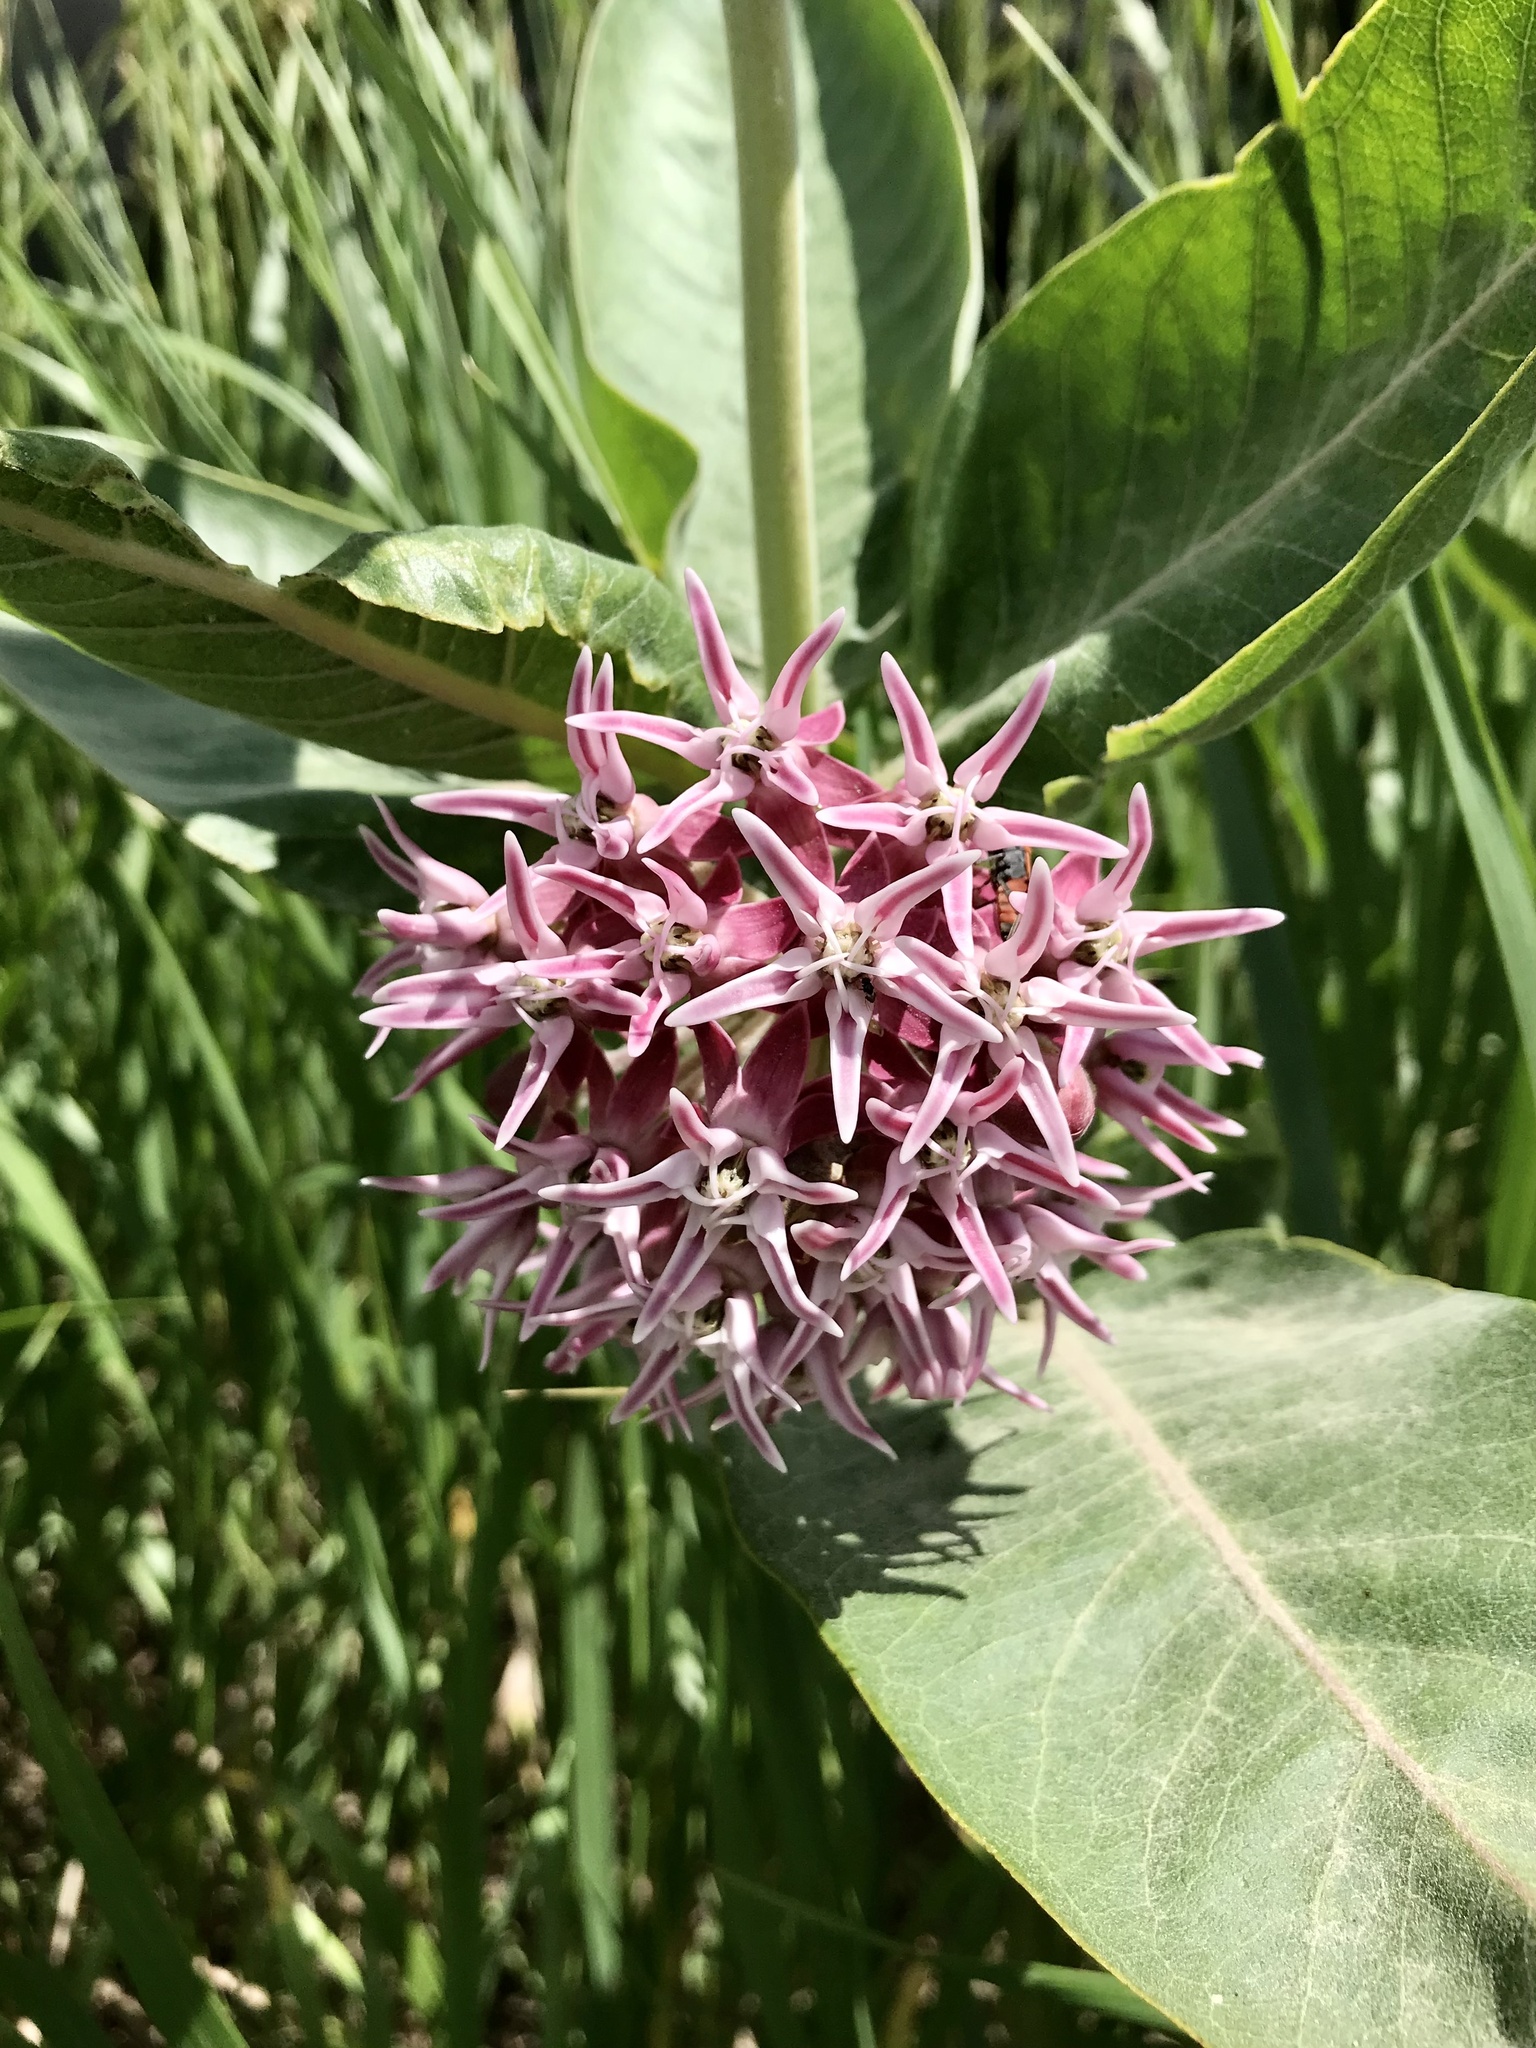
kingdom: Plantae
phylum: Tracheophyta
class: Magnoliopsida
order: Gentianales
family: Apocynaceae
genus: Asclepias
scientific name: Asclepias speciosa
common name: Showy milkweed
